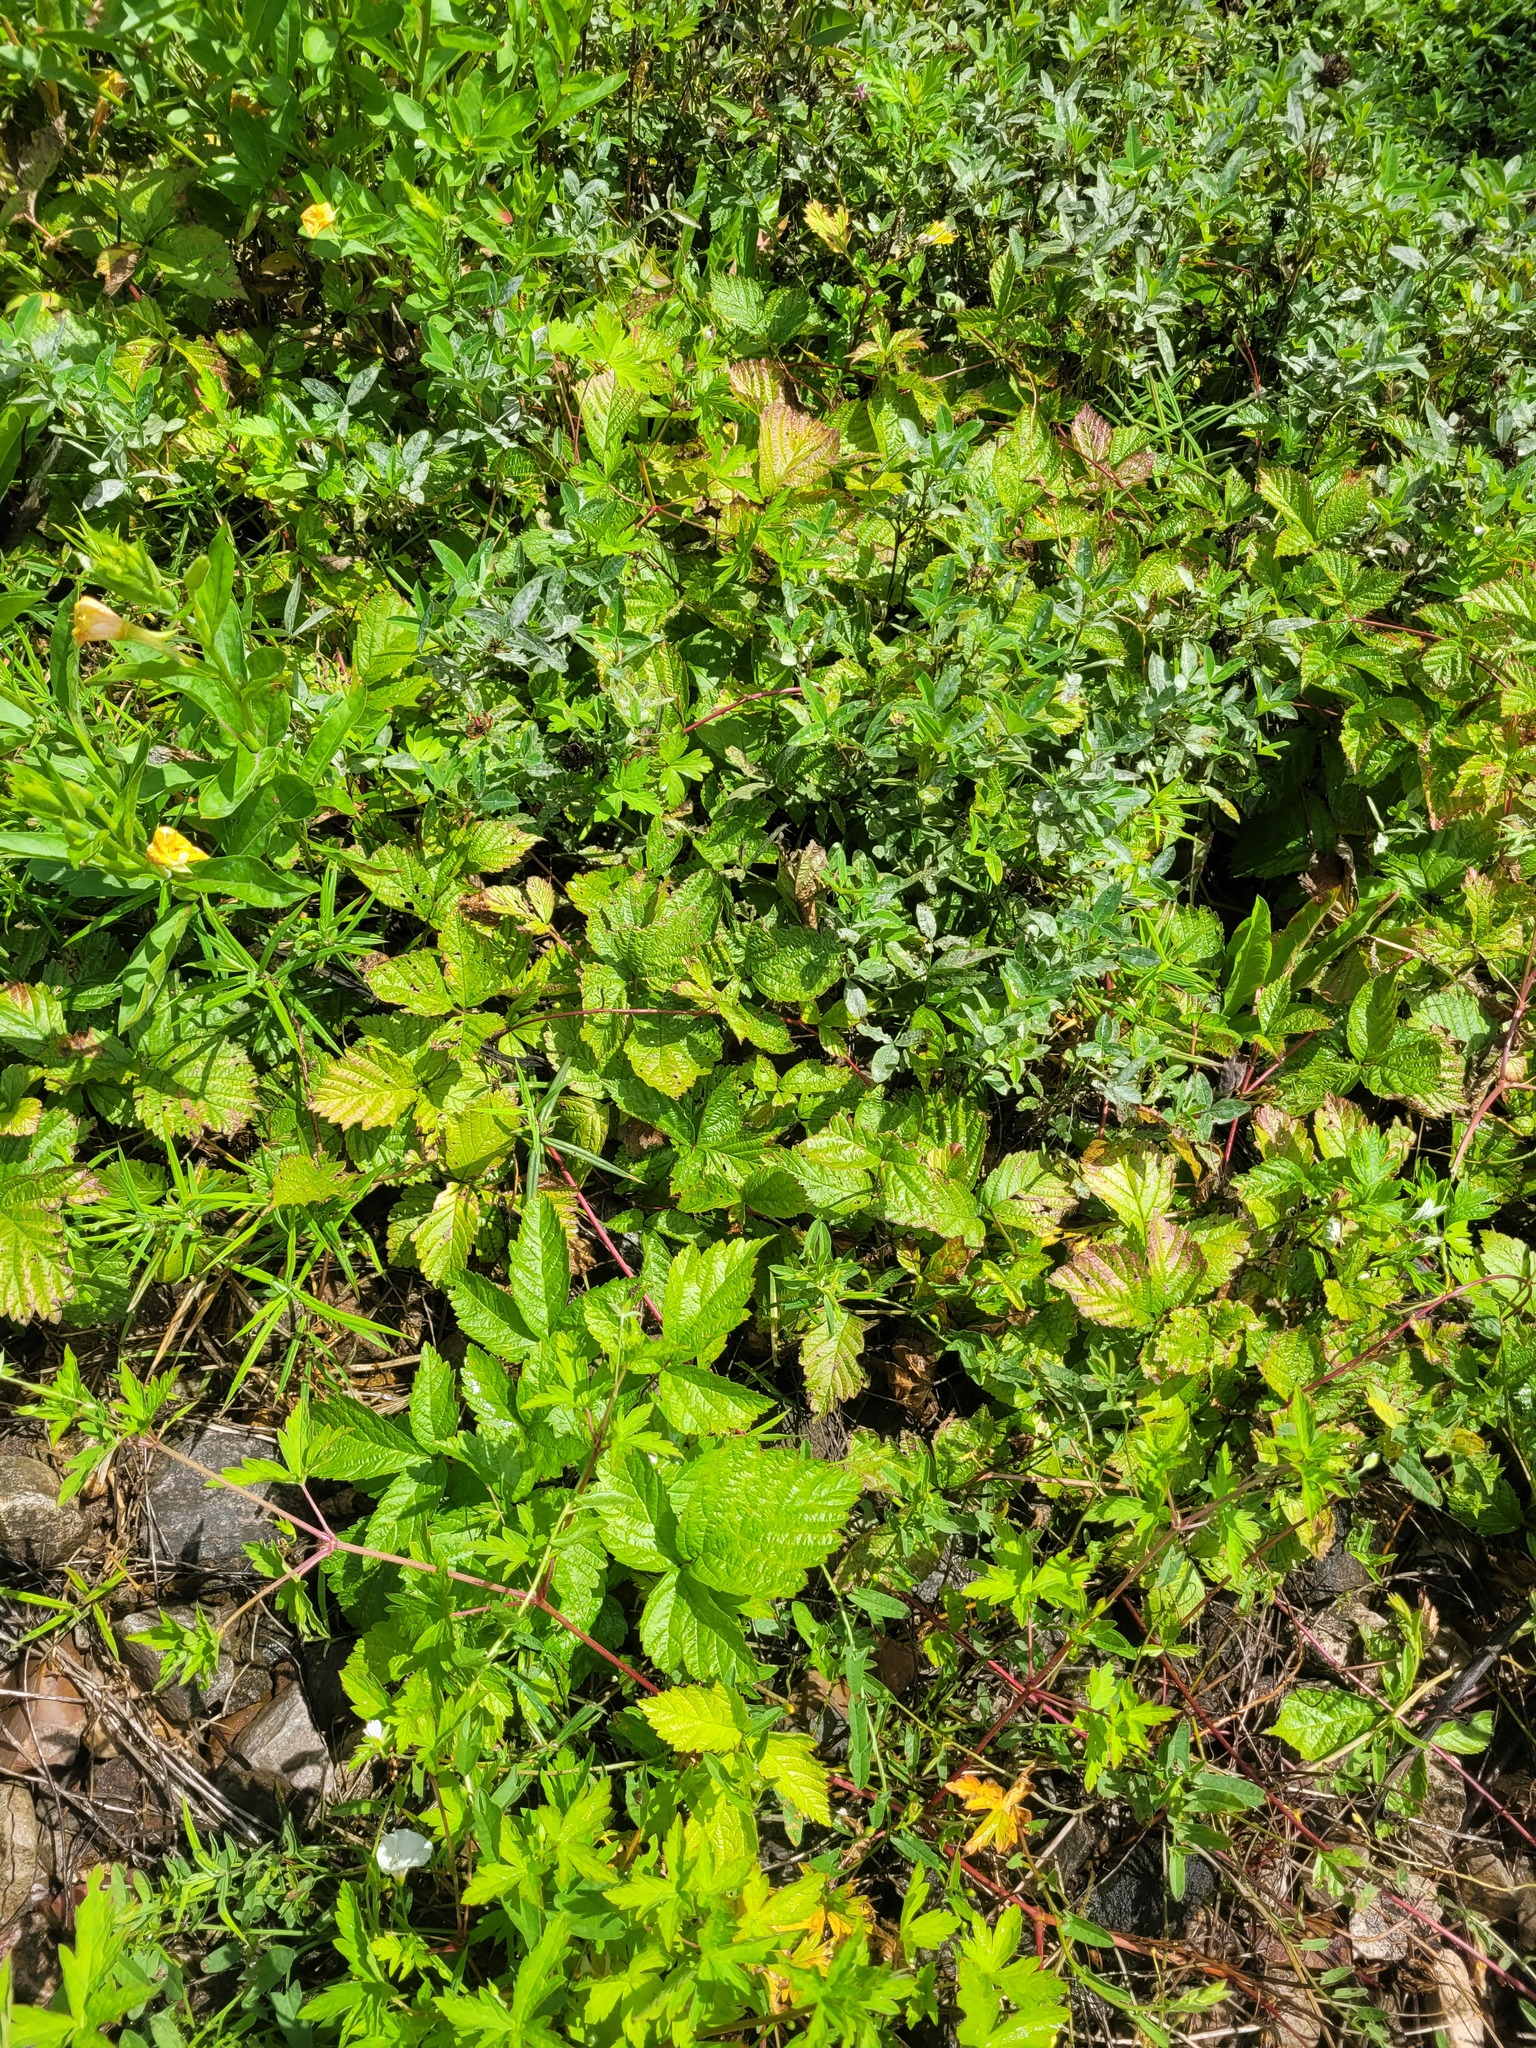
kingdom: Plantae
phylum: Tracheophyta
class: Magnoliopsida
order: Rosales
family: Rosaceae
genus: Rubus
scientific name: Rubus saxatilis
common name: Stone bramble
